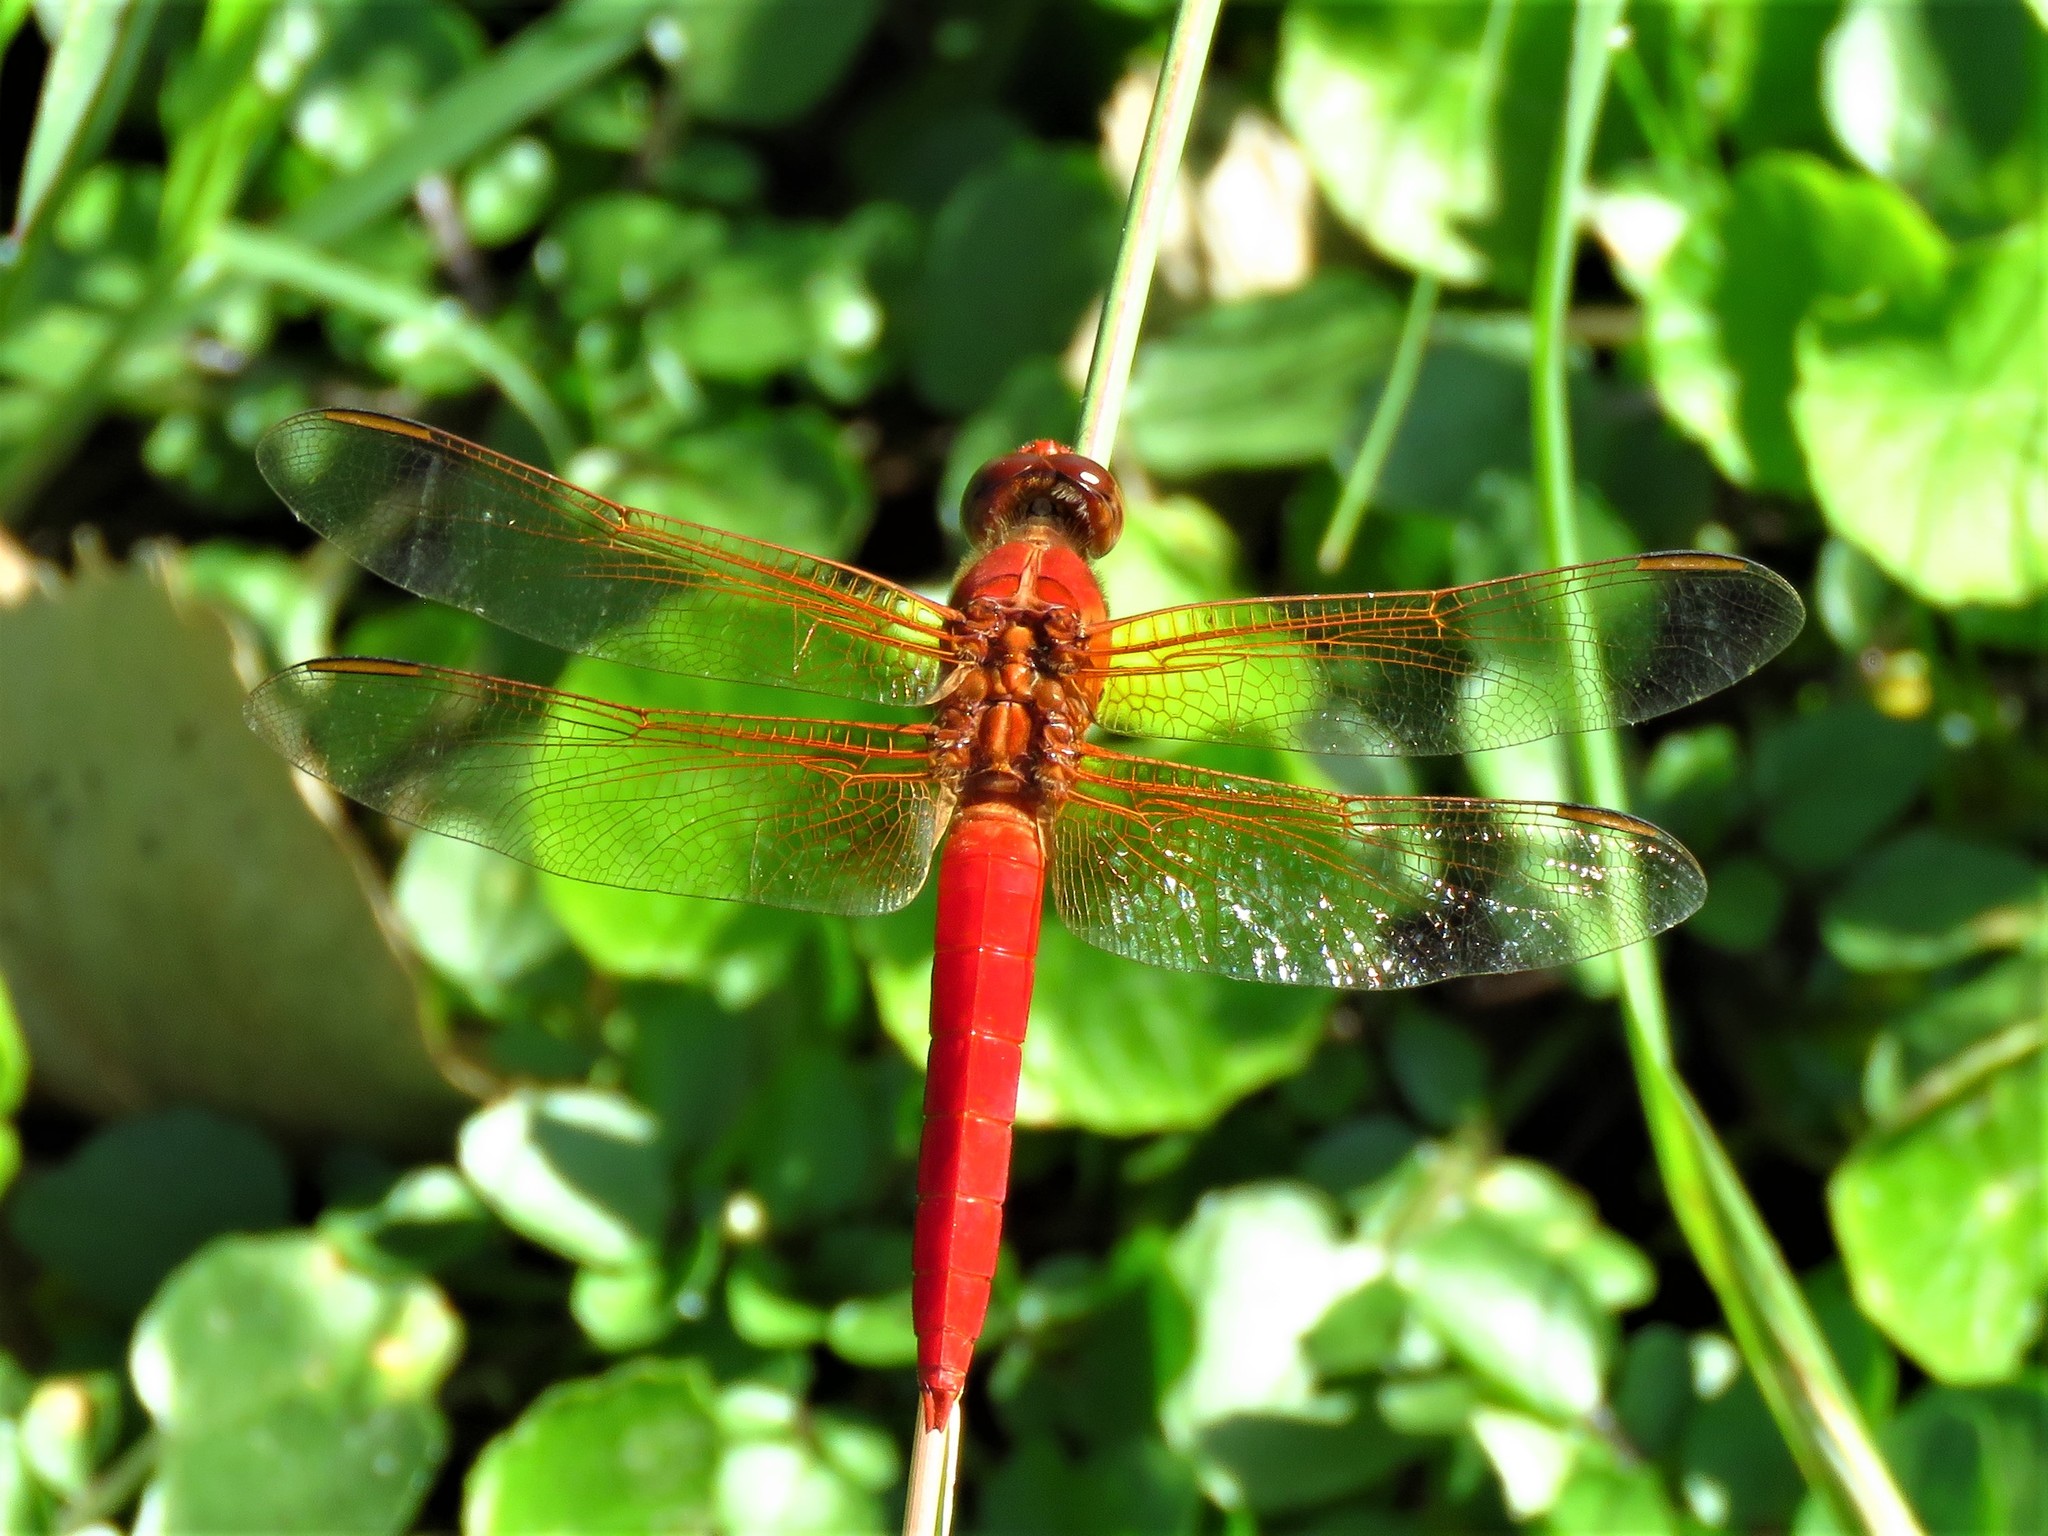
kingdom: Animalia
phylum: Arthropoda
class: Insecta
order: Odonata
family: Libellulidae
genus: Libellula
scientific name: Libellula croceipennis
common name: Neon skimmer
